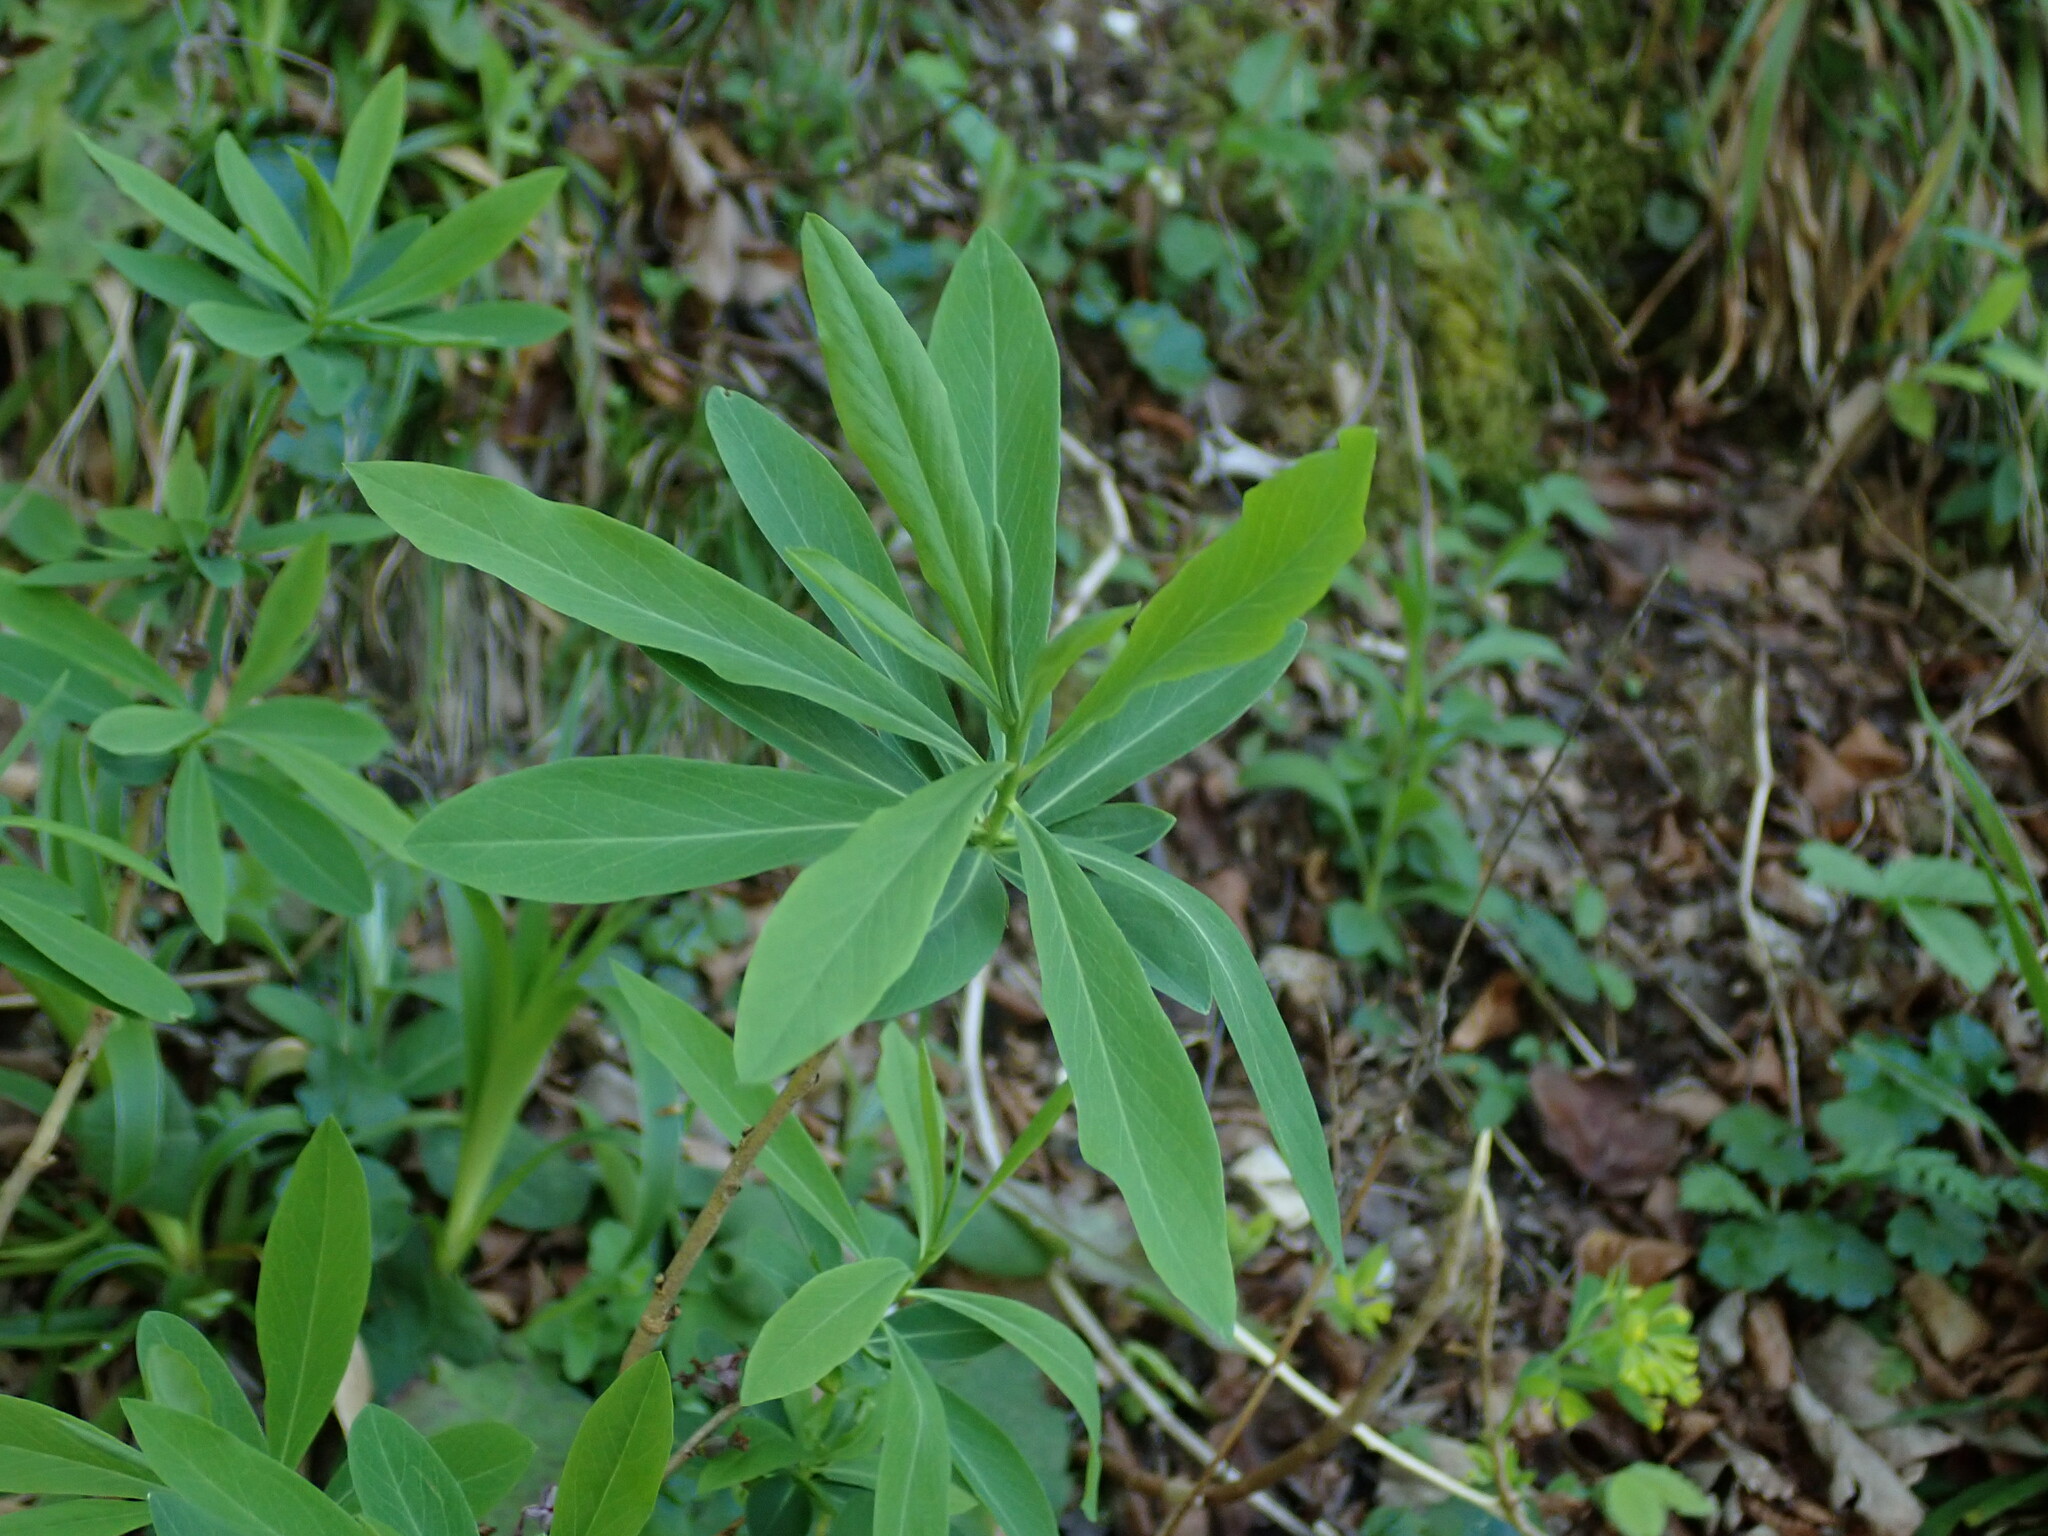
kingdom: Plantae
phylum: Tracheophyta
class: Magnoliopsida
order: Malvales
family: Thymelaeaceae
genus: Daphne
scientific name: Daphne mezereum
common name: Mezereon
